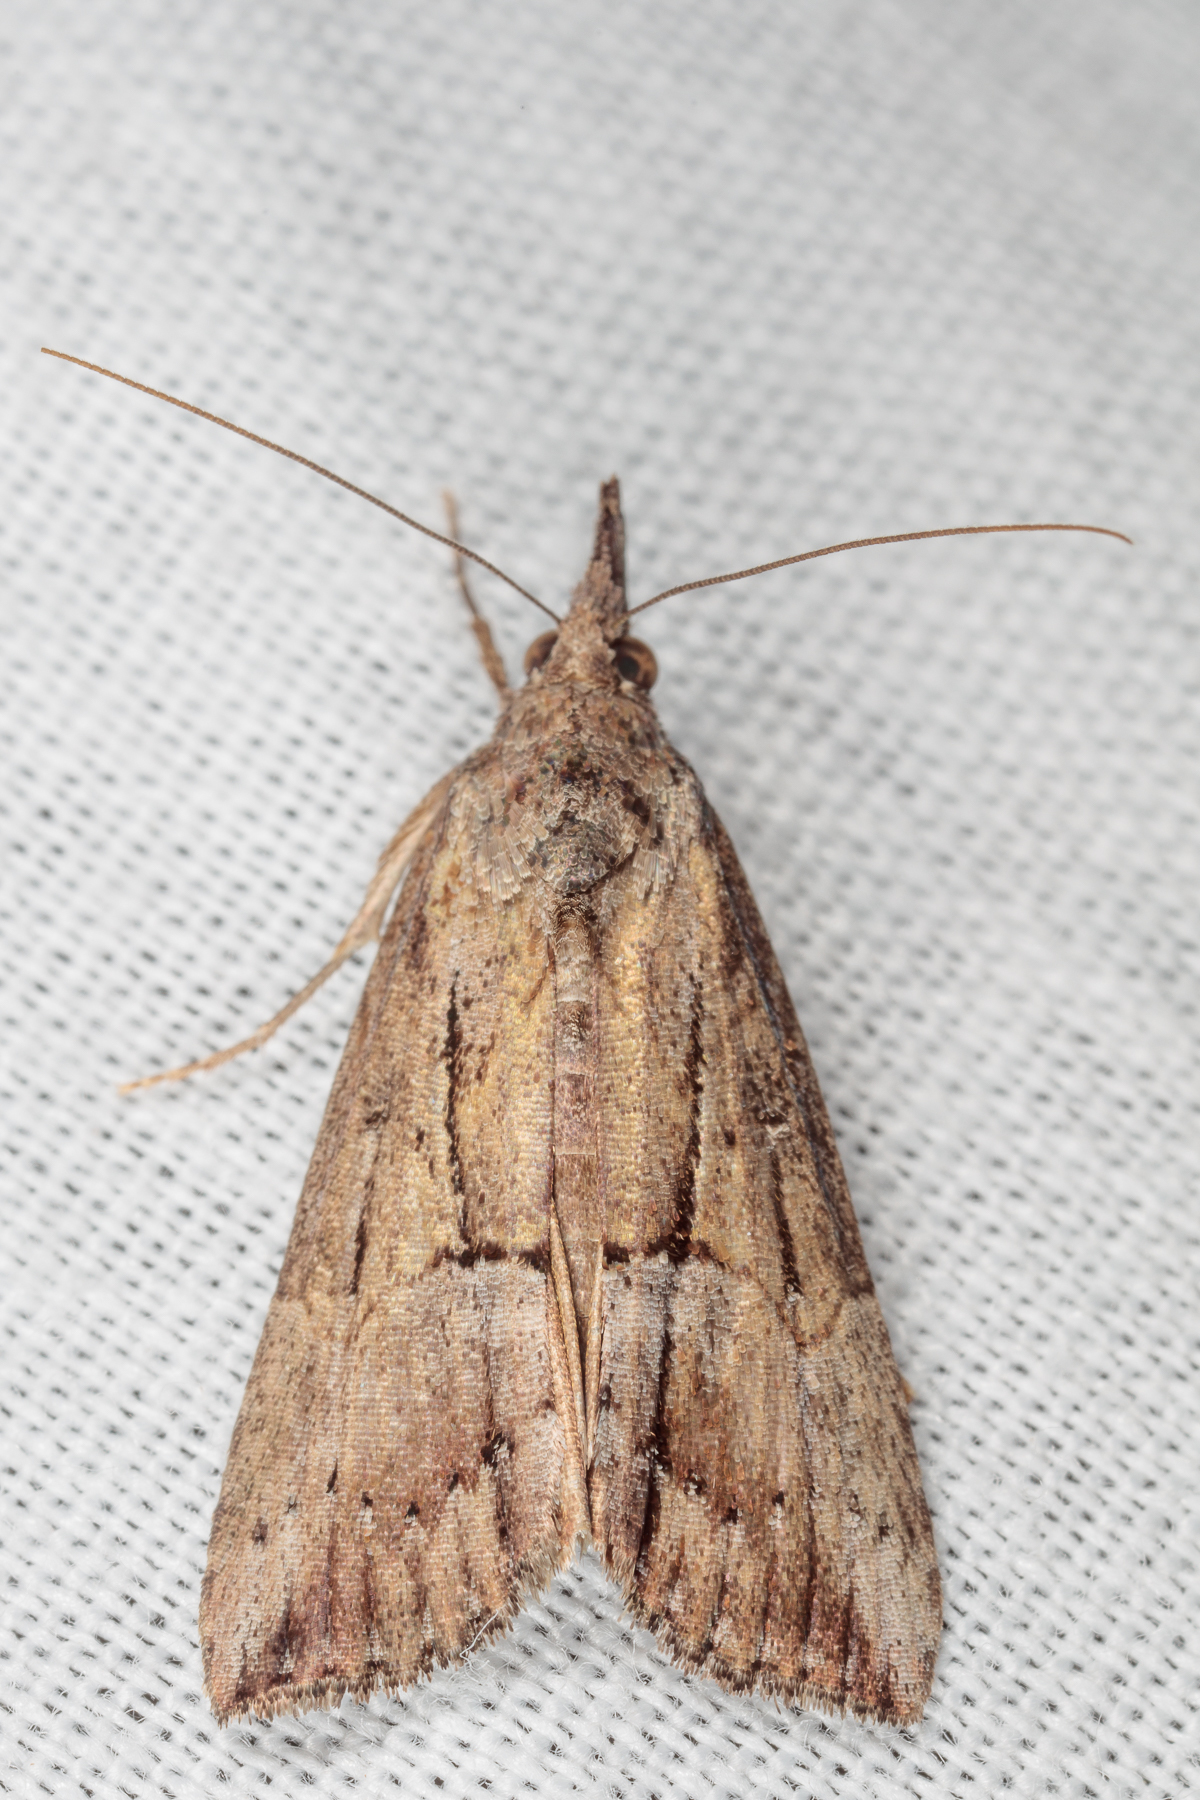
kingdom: Animalia
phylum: Arthropoda
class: Insecta
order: Lepidoptera
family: Erebidae
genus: Hypena
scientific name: Hypena scabra
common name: Green cloverworm
